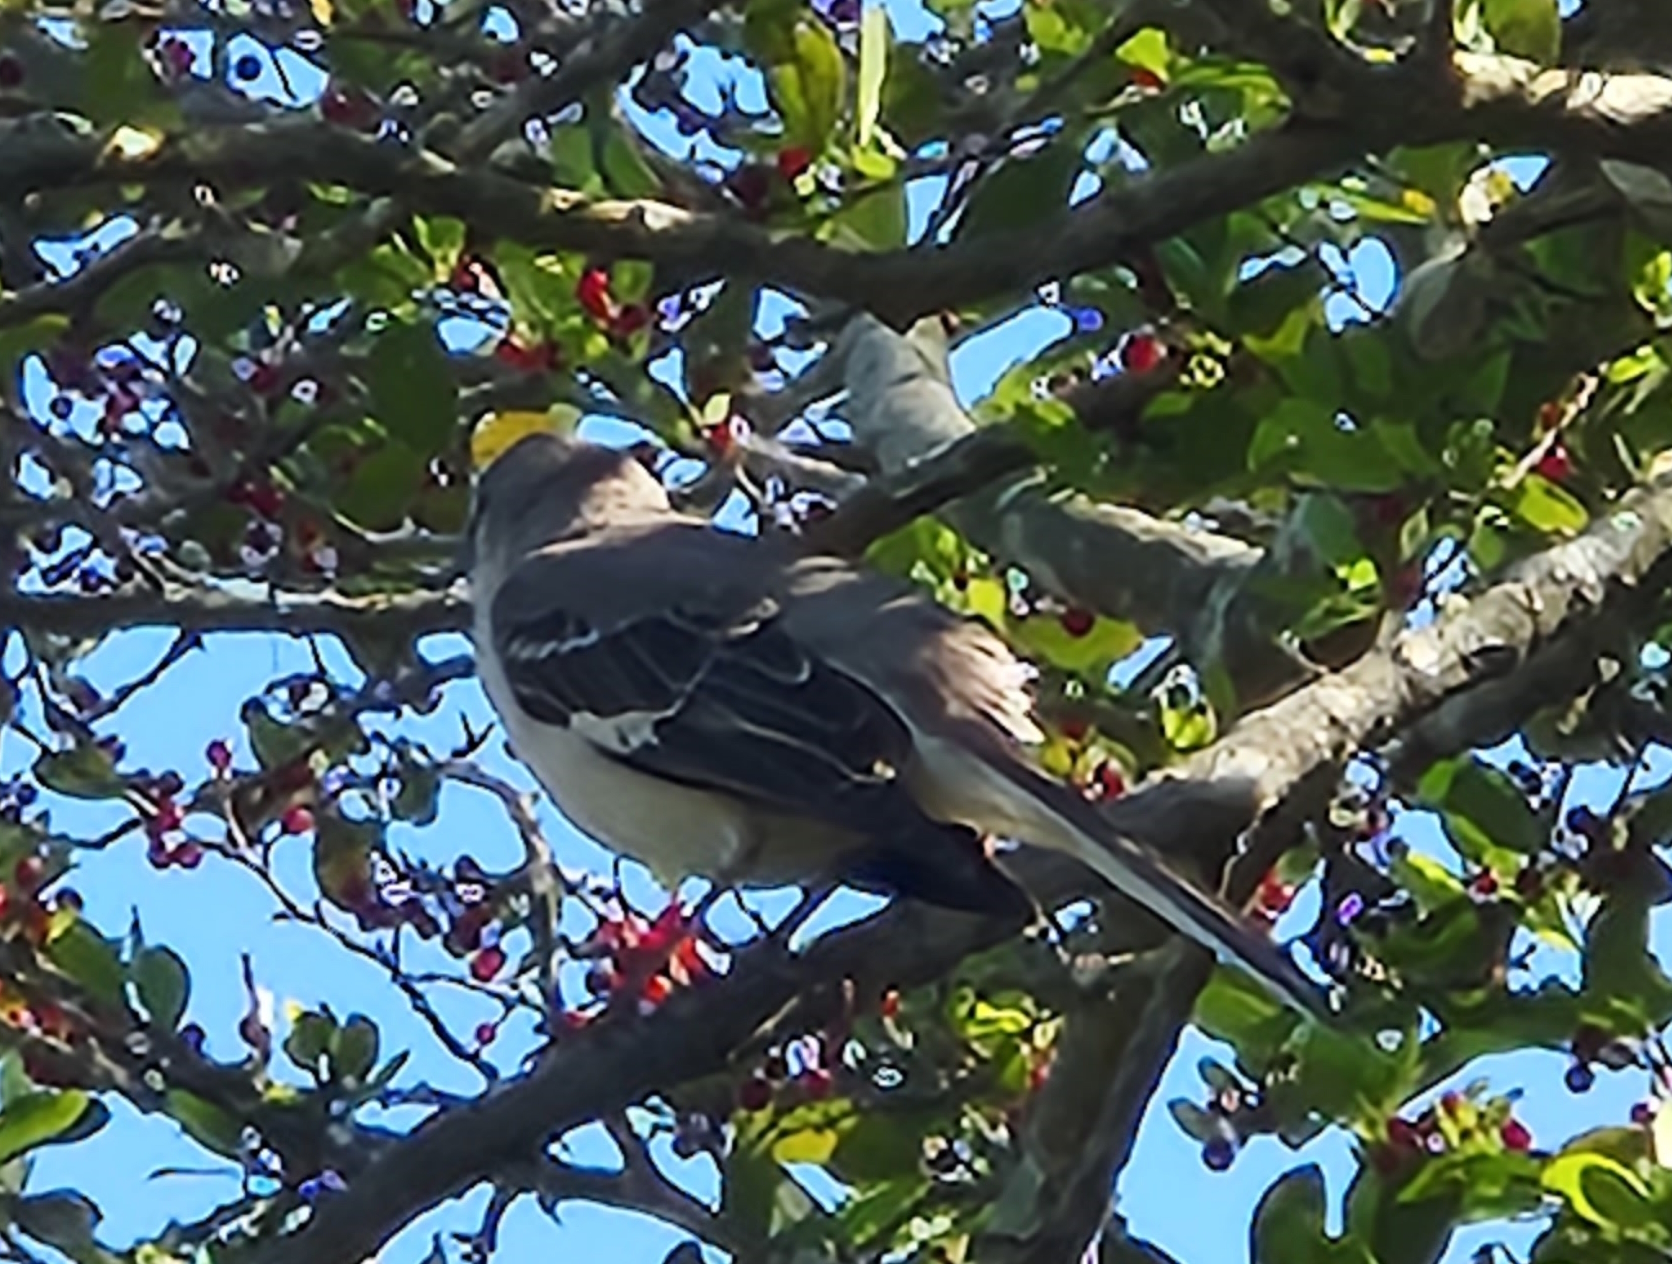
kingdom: Animalia
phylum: Chordata
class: Aves
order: Passeriformes
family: Mimidae
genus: Mimus
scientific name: Mimus polyglottos
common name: Northern mockingbird
